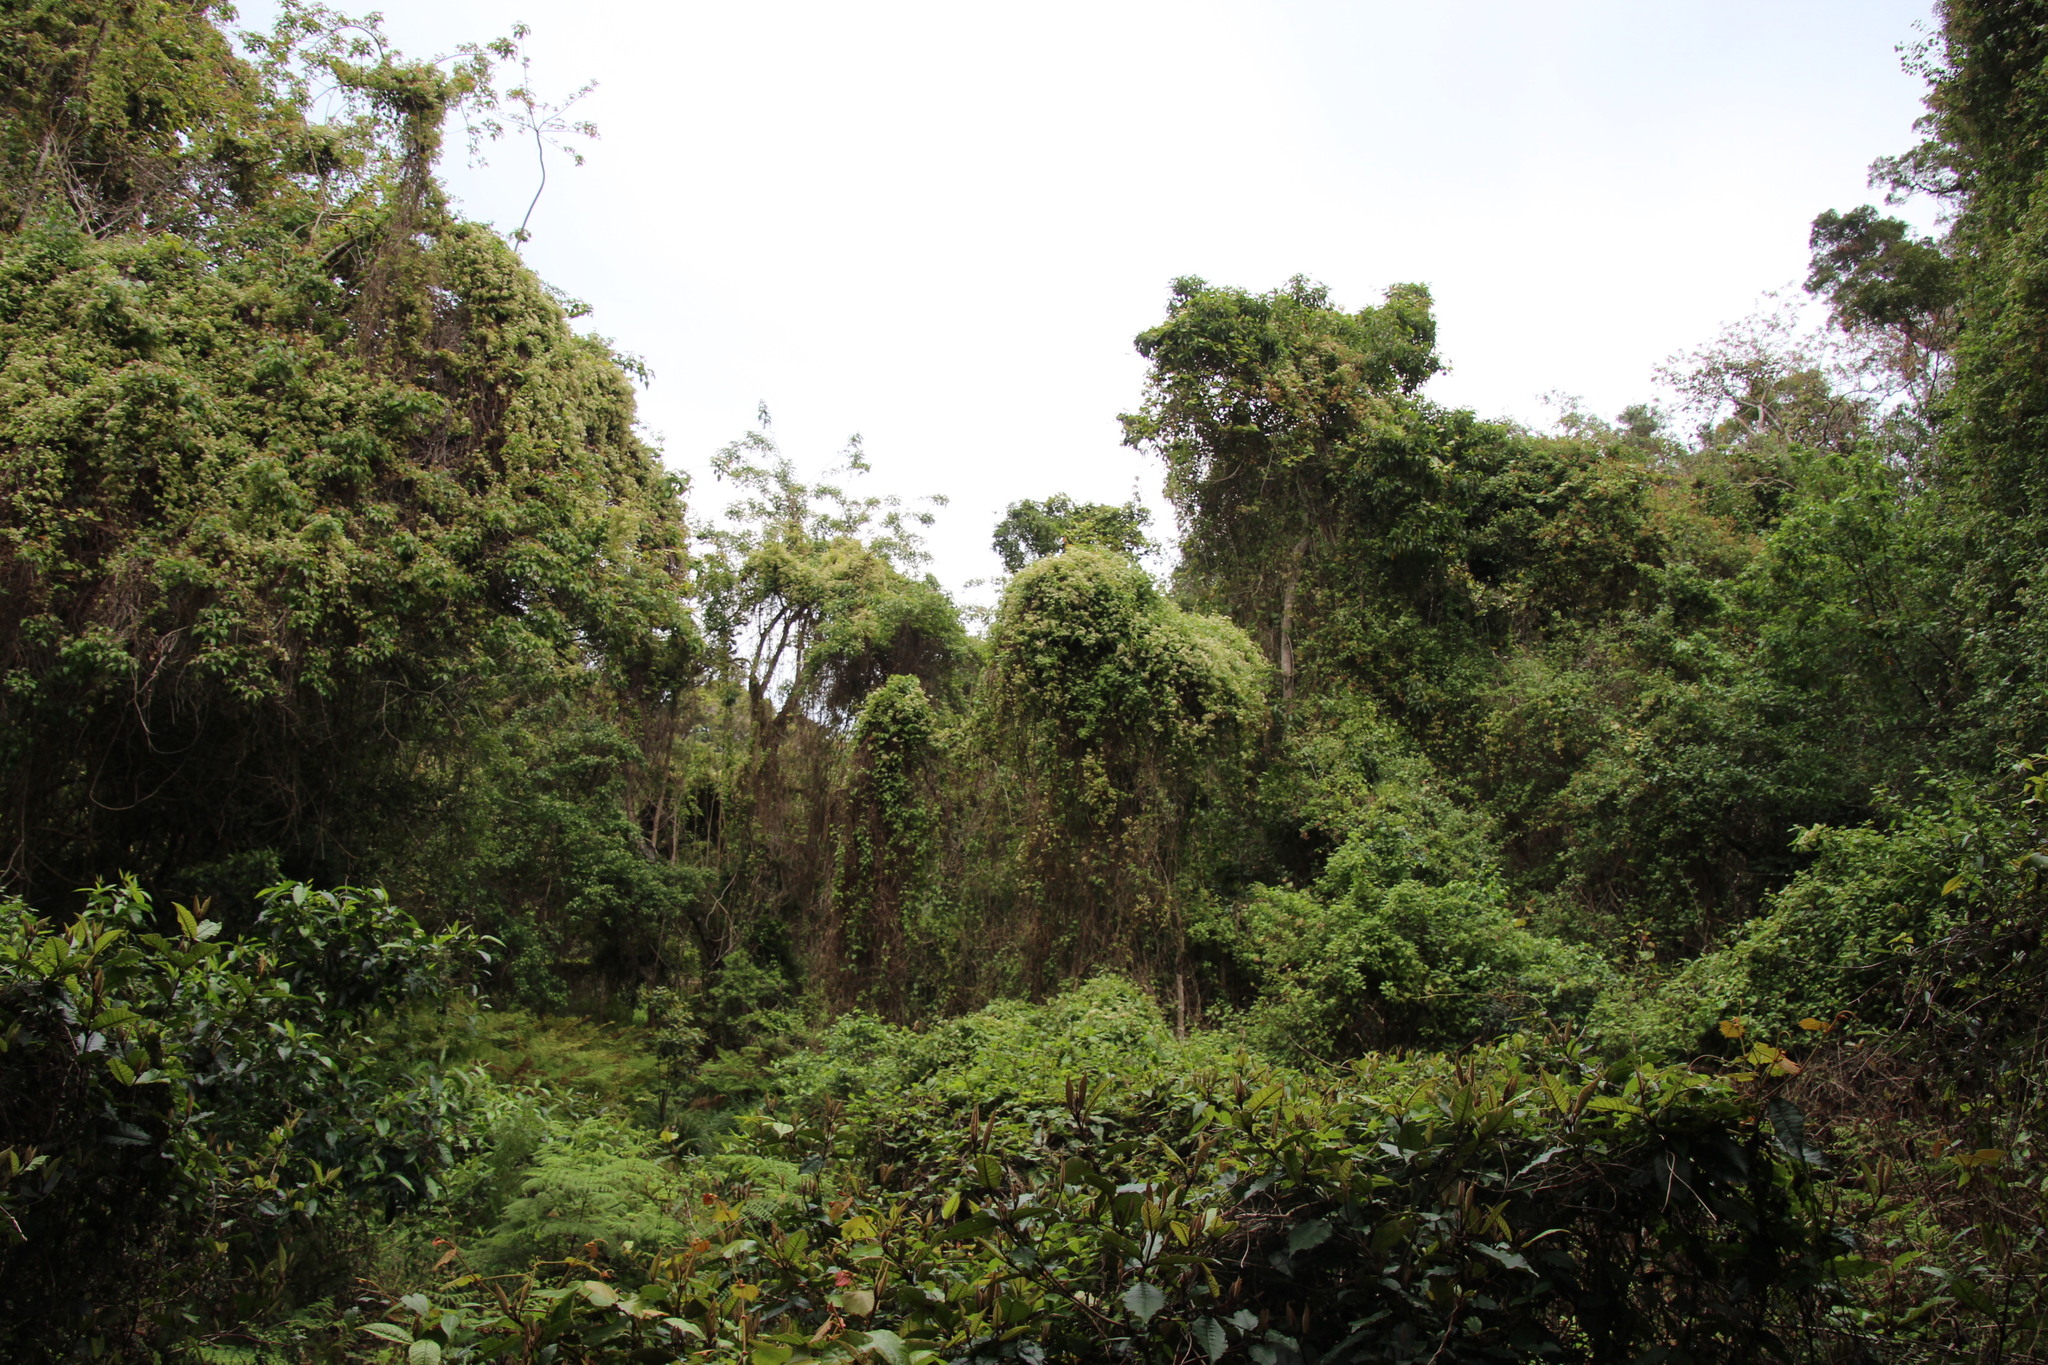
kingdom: Plantae
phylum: Tracheophyta
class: Magnoliopsida
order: Asterales
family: Asteraceae
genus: Gymnanthemum
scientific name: Gymnanthemum capense
